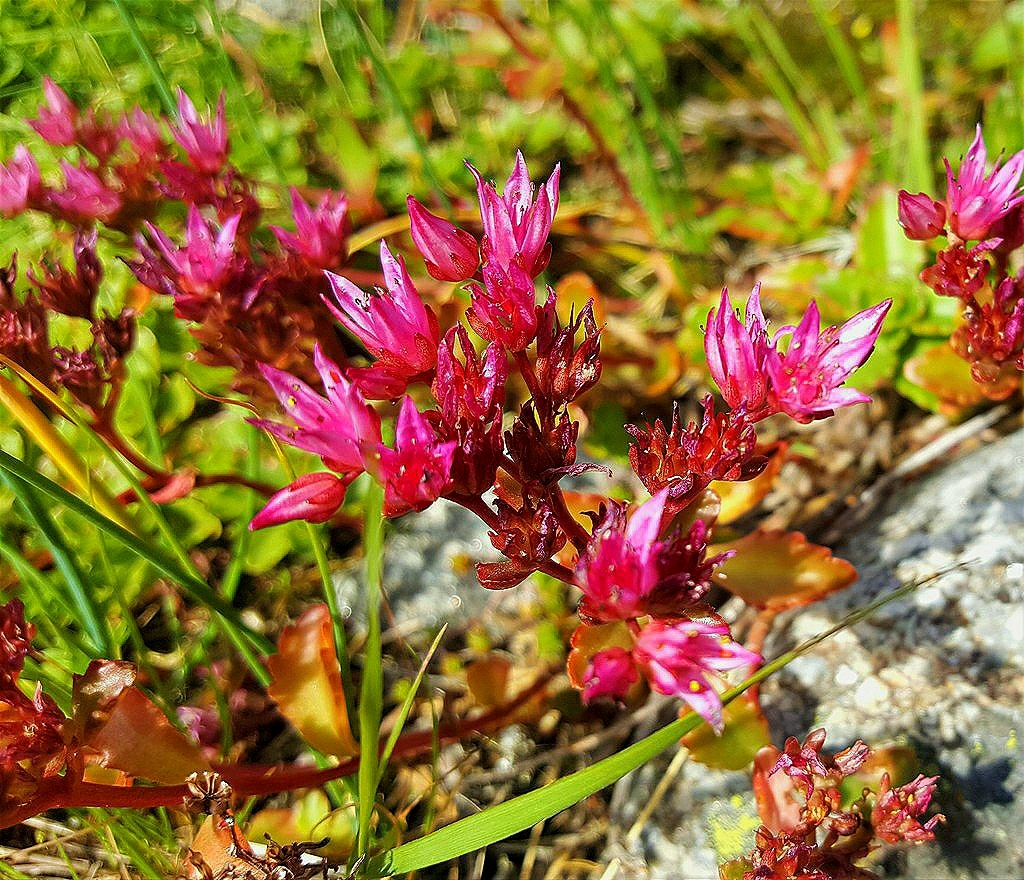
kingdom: Plantae
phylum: Tracheophyta
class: Magnoliopsida
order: Saxifragales
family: Crassulaceae
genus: Phedimus
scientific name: Phedimus spurius
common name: Caucasian stonecrop
